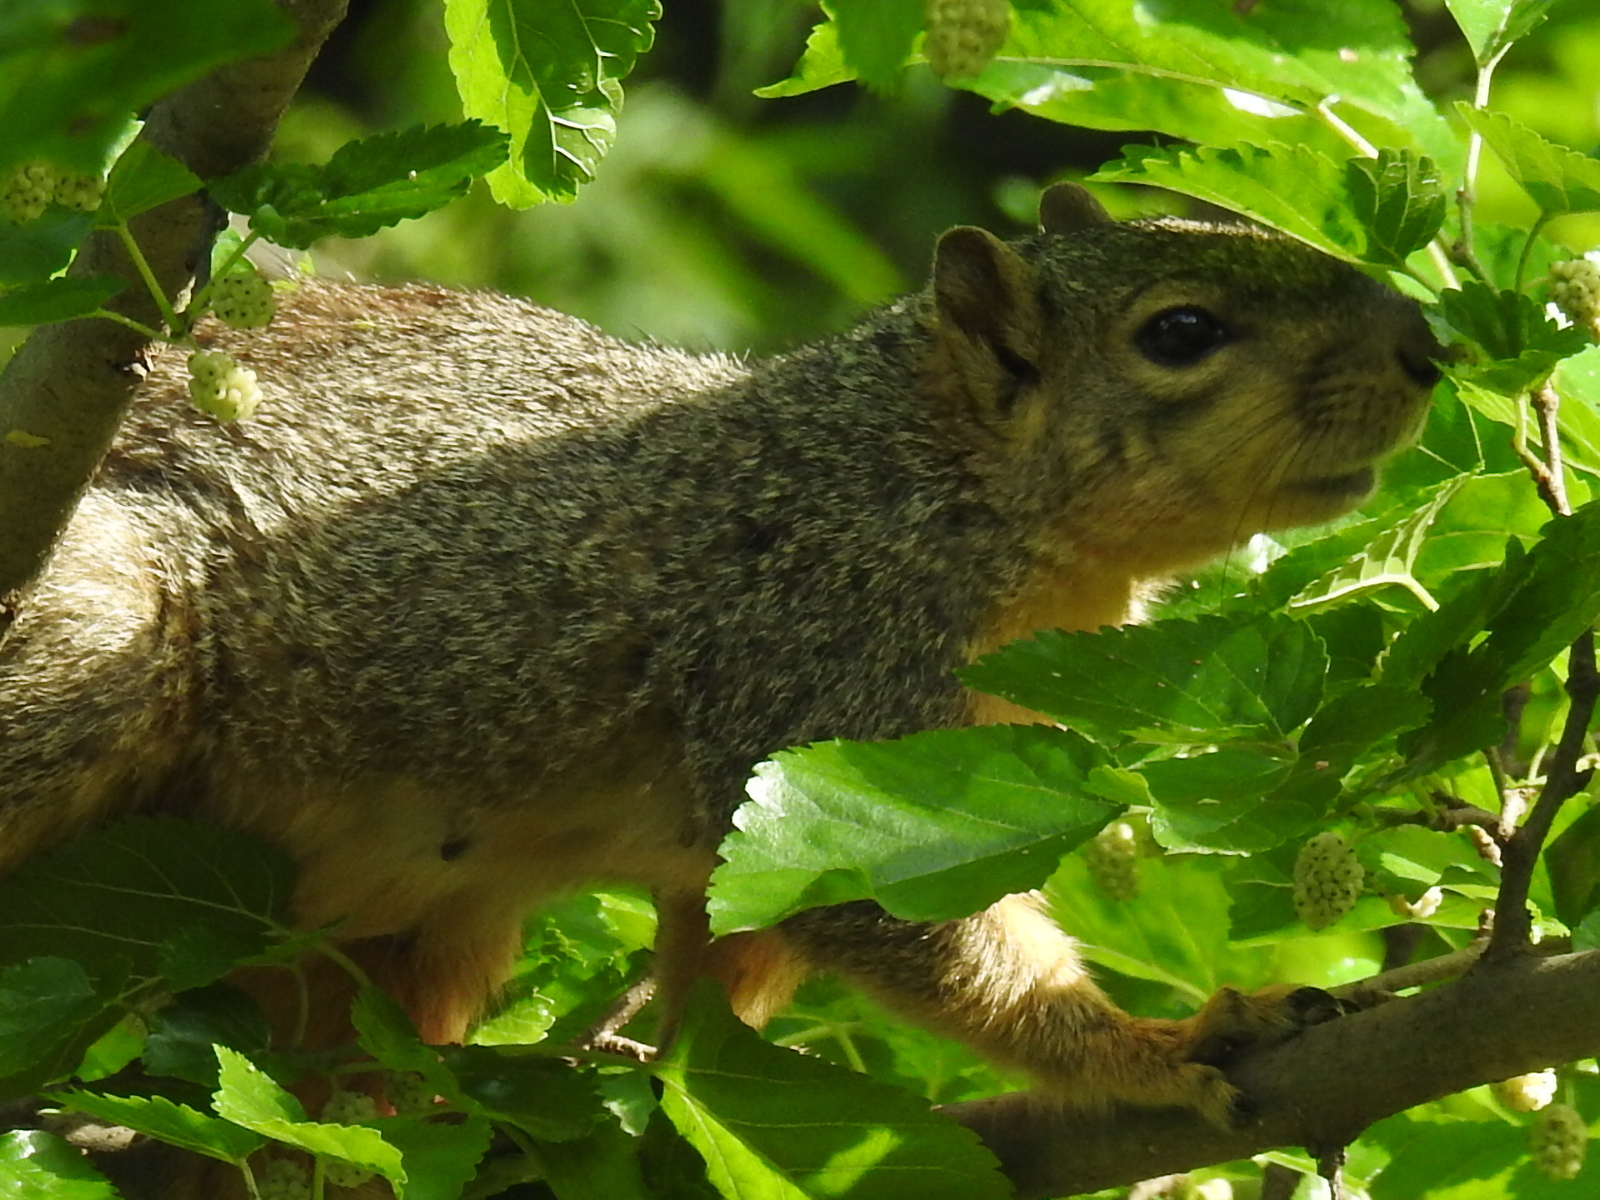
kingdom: Animalia
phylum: Chordata
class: Mammalia
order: Rodentia
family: Sciuridae
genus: Sciurus
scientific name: Sciurus niger
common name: Fox squirrel
